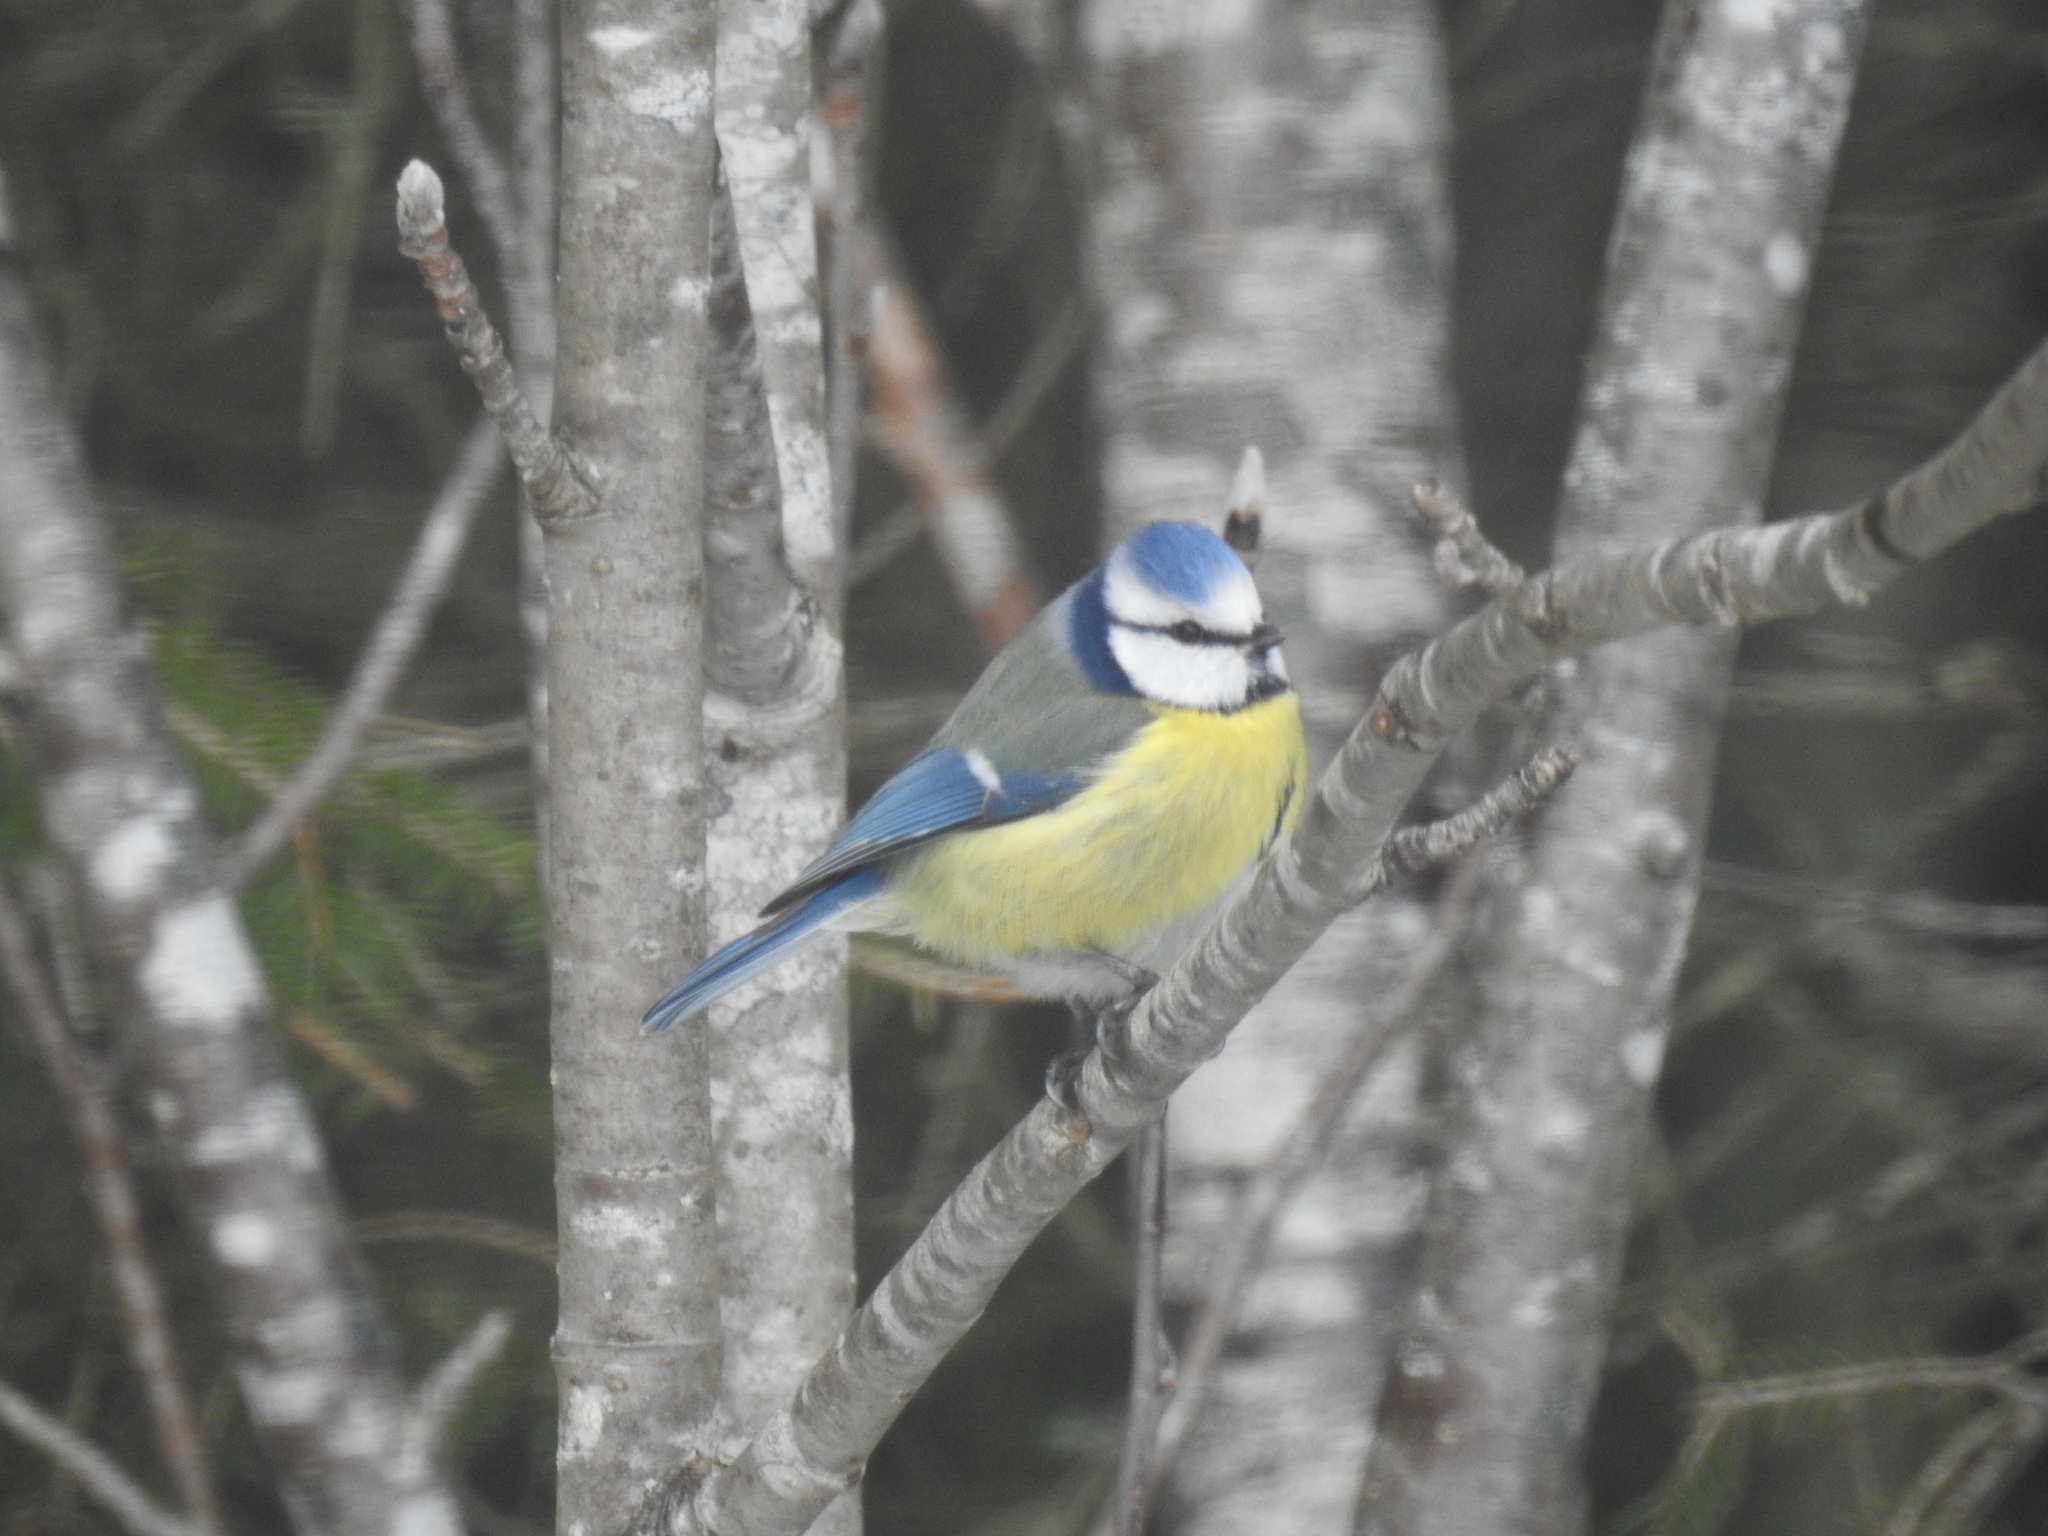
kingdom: Animalia
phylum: Chordata
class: Aves
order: Passeriformes
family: Paridae
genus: Cyanistes
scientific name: Cyanistes caeruleus
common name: Eurasian blue tit
